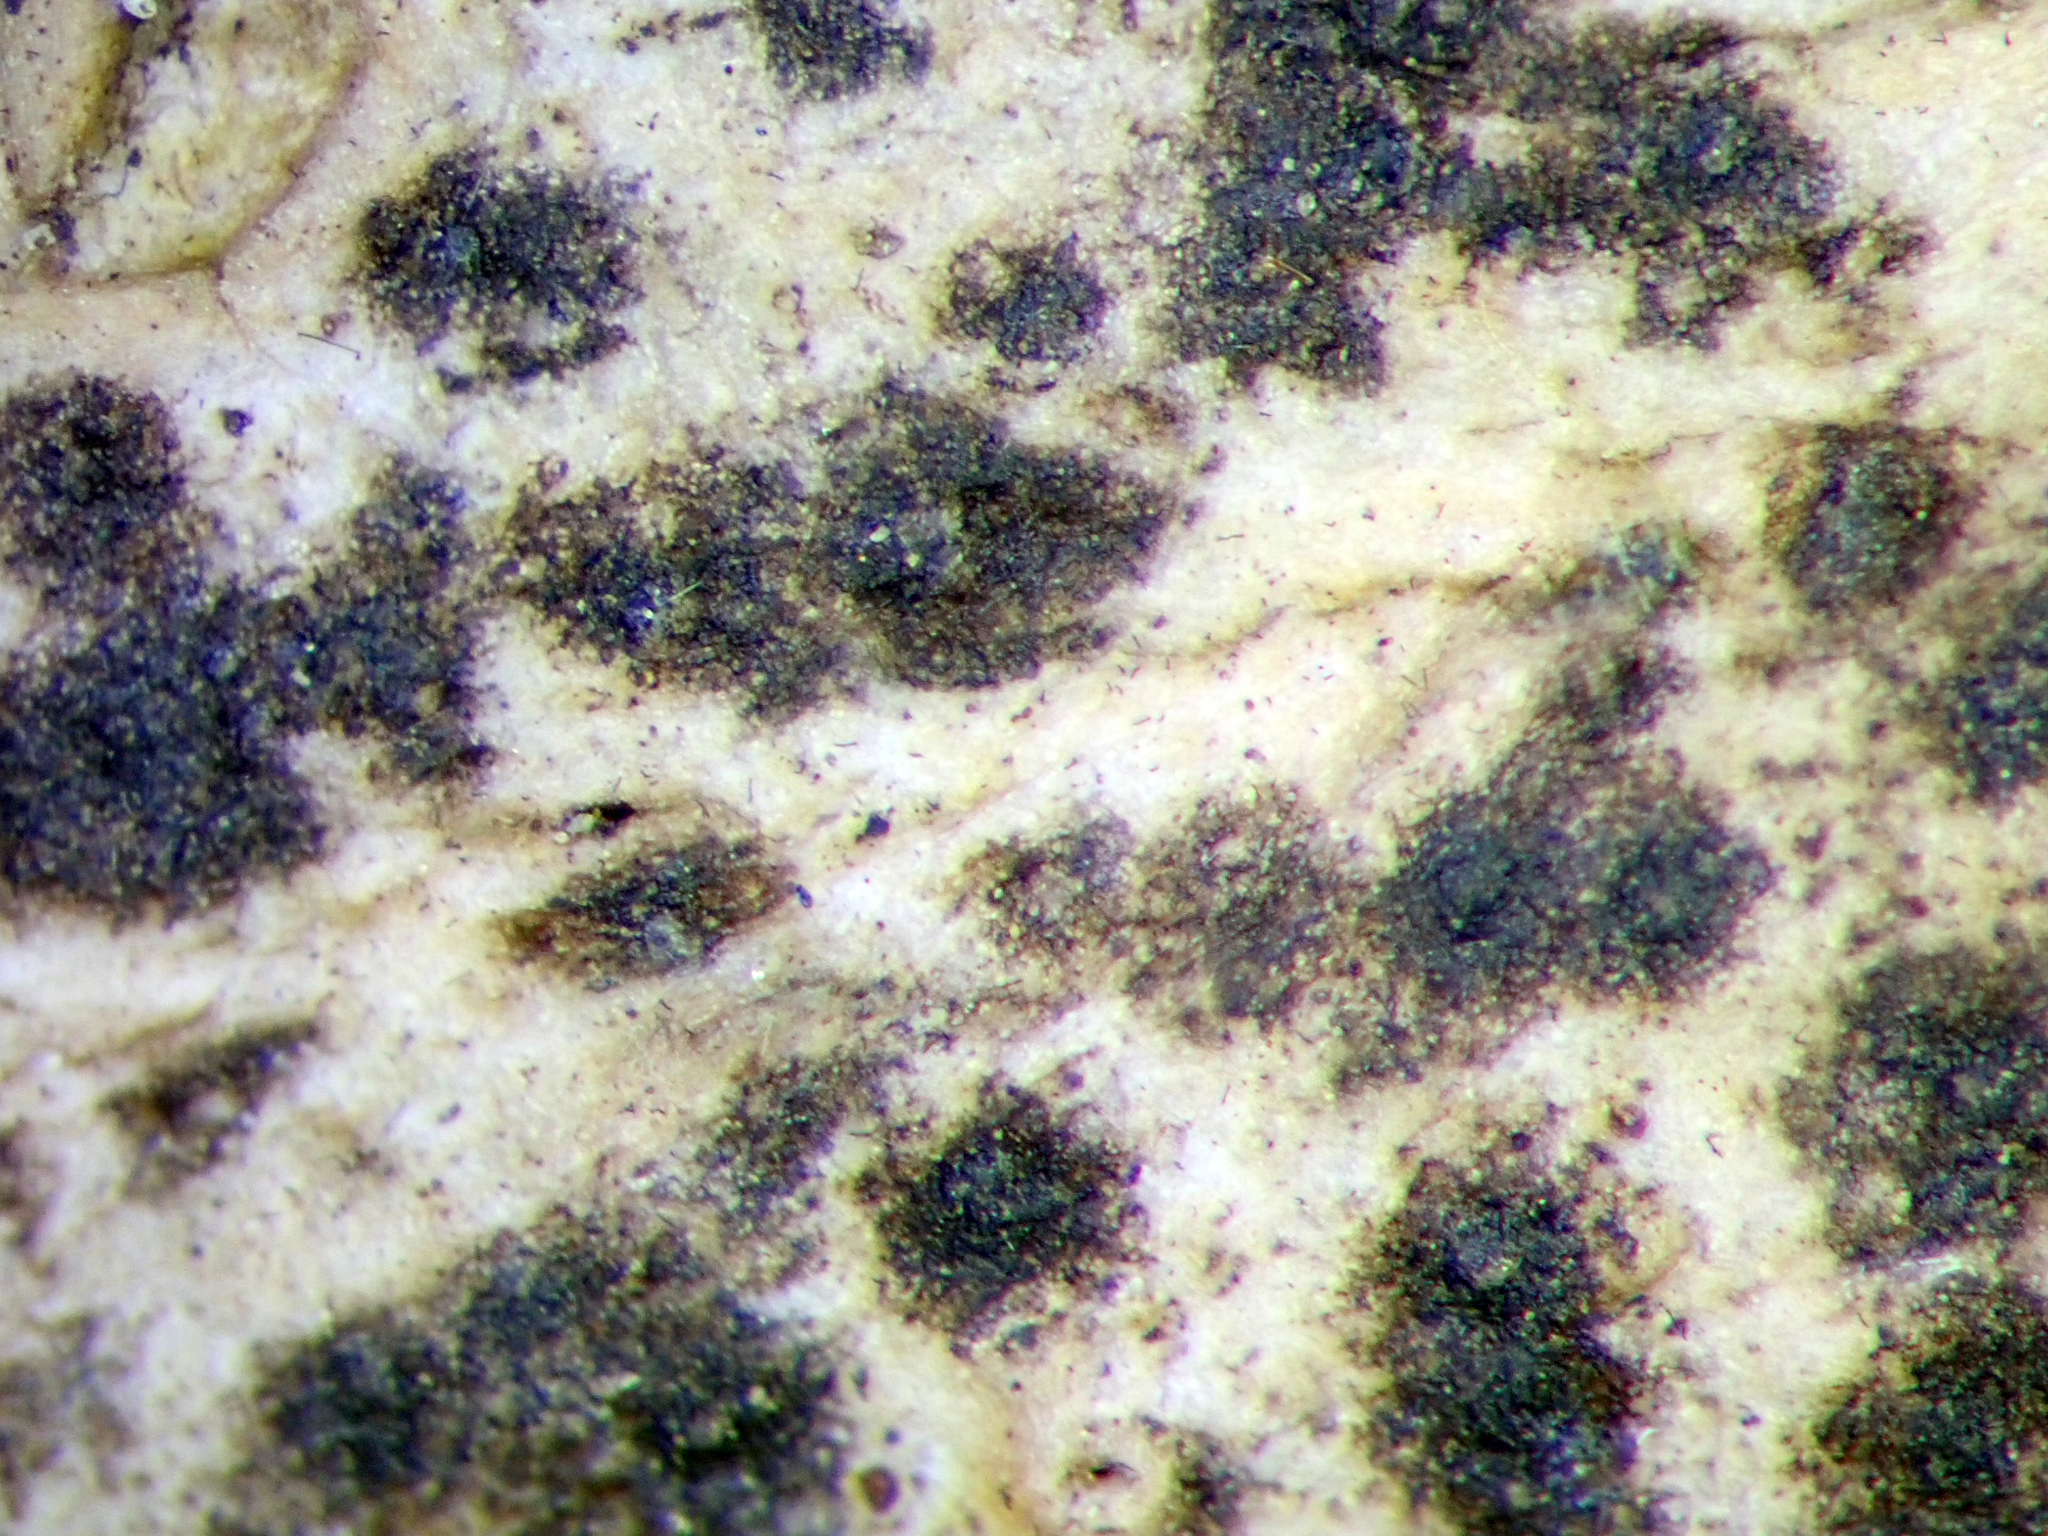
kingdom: Fungi
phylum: Ascomycota
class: Dothideomycetes
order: Pleosporales
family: Arthopyreniaceae
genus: Arthopyrenia
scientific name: Arthopyrenia
